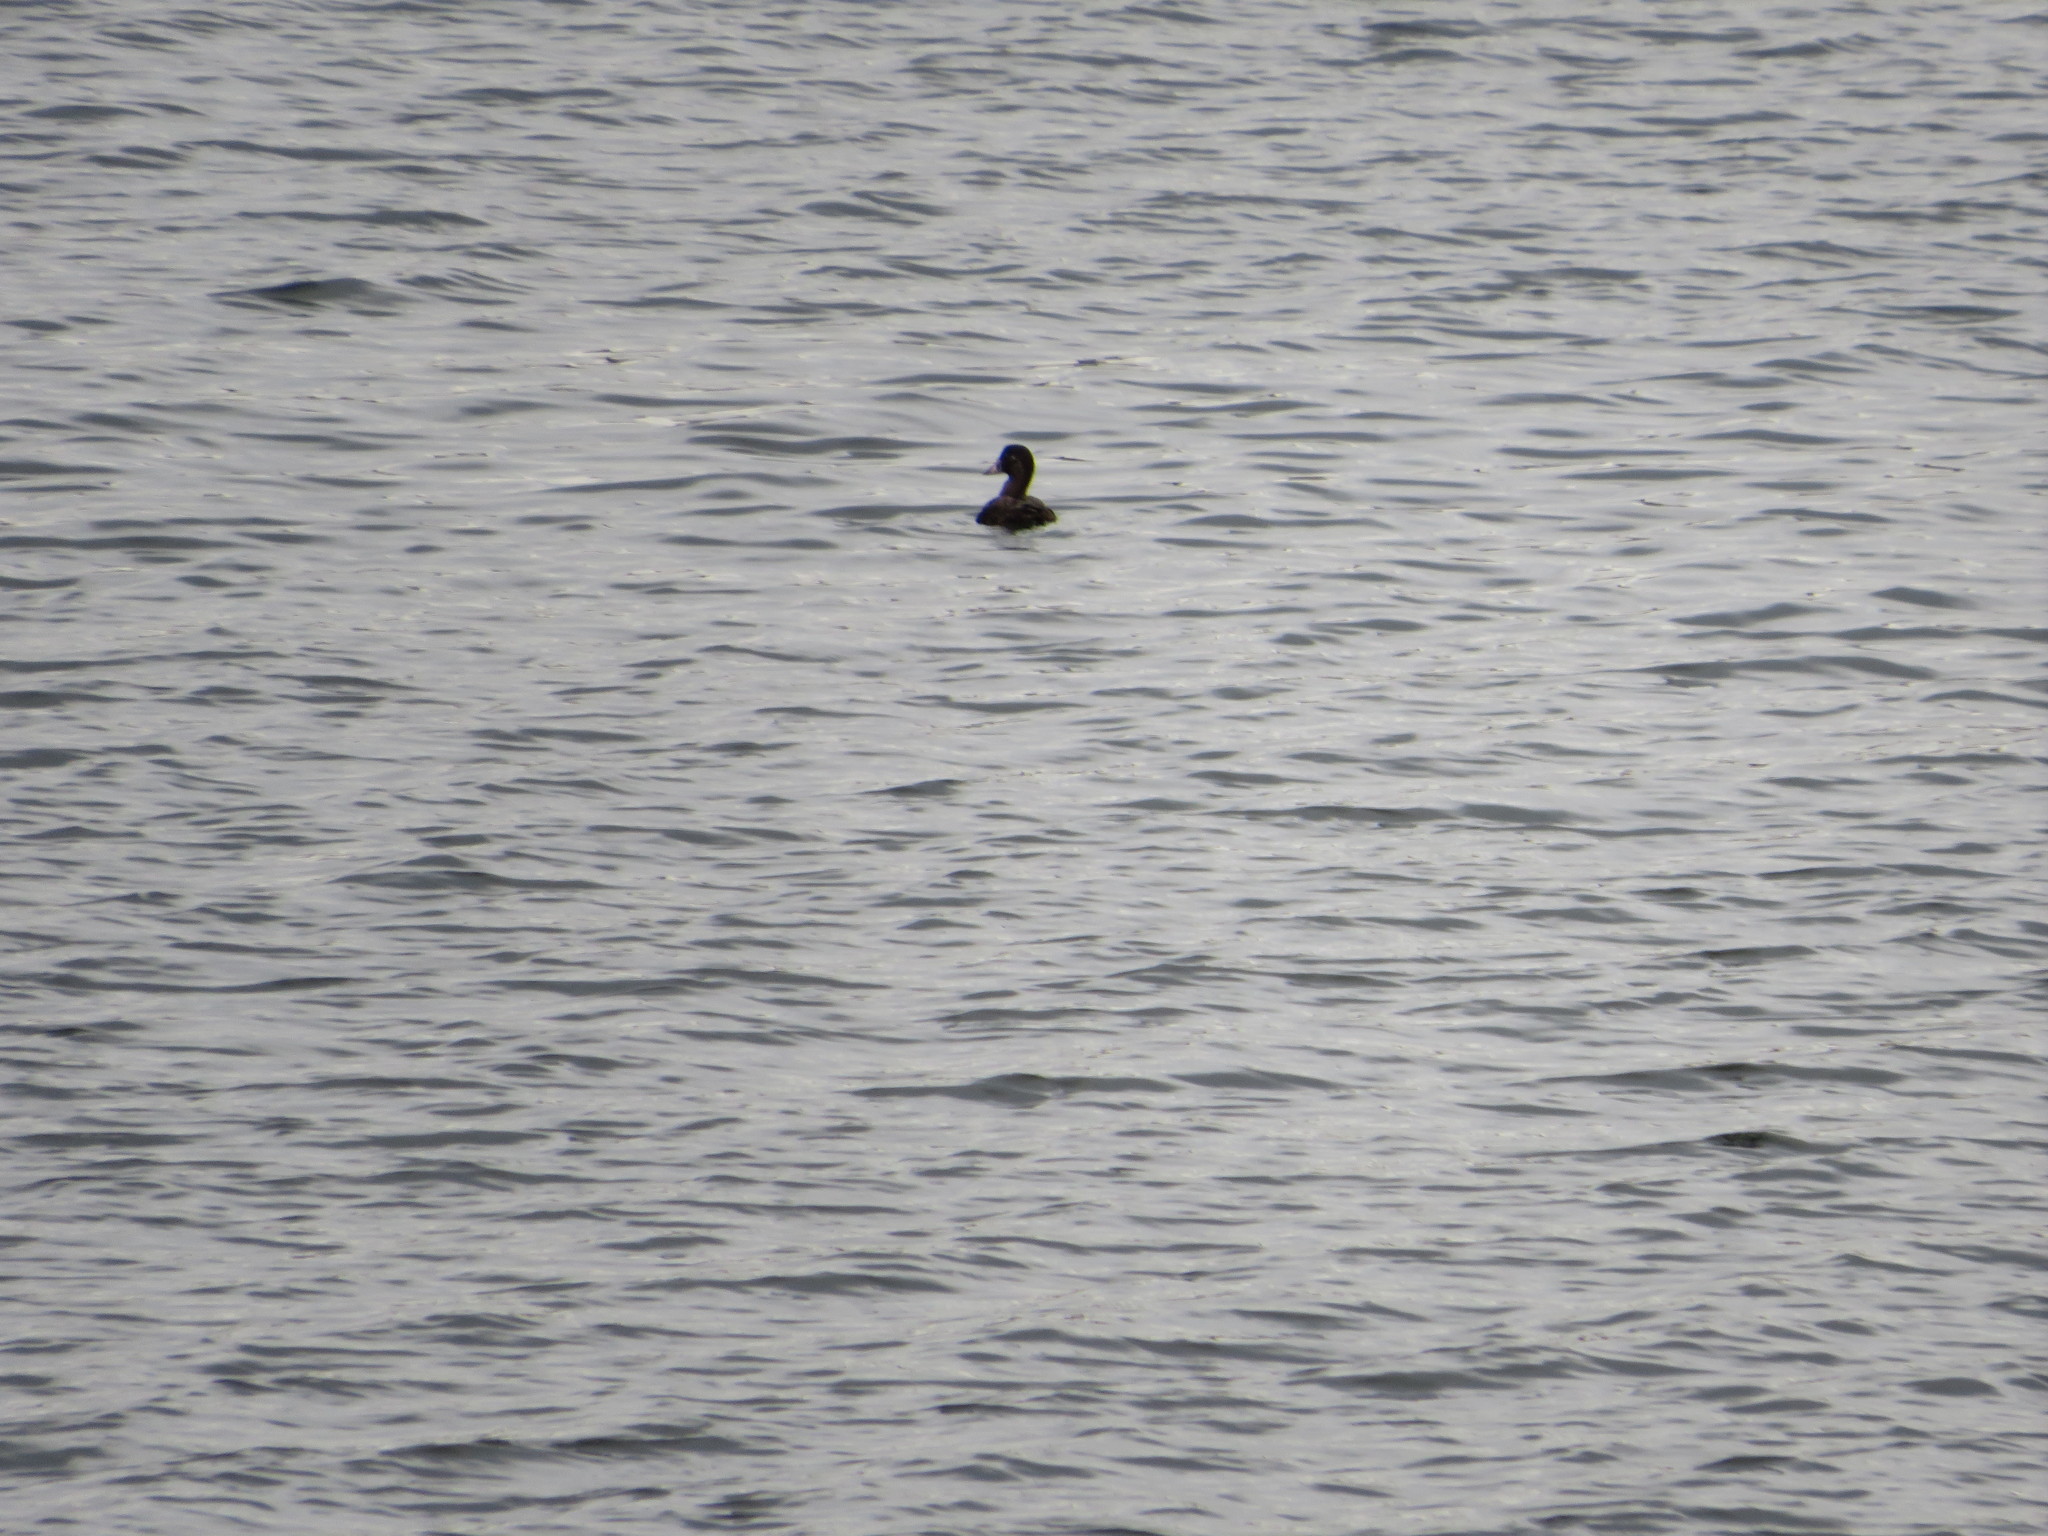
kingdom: Animalia
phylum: Chordata
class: Aves
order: Anseriformes
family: Anatidae
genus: Melanitta
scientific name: Melanitta perspicillata
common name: Surf scoter
